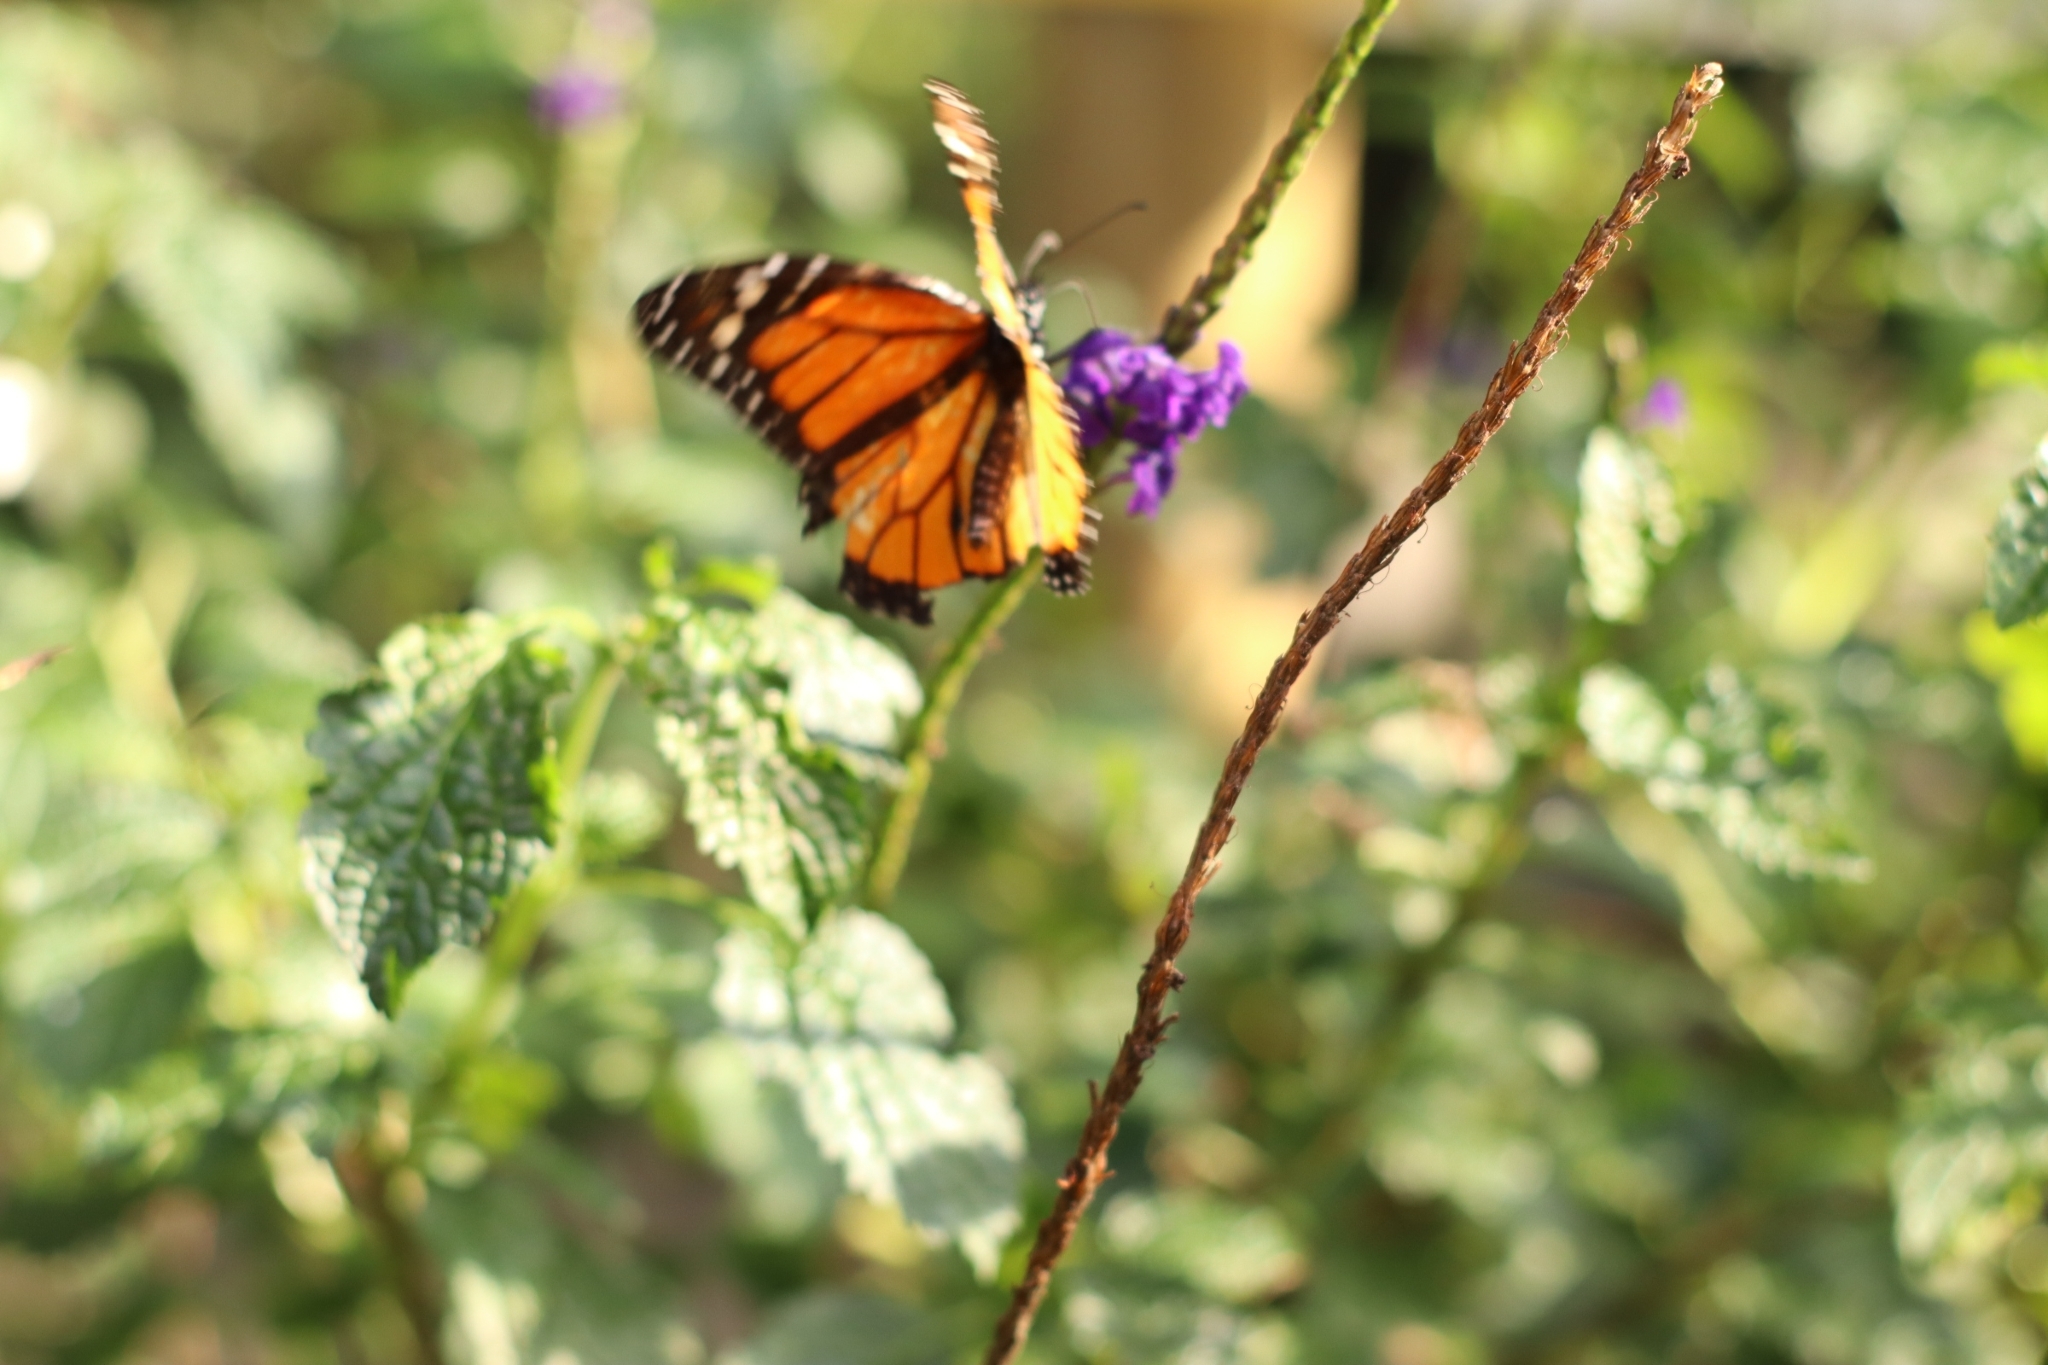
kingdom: Animalia
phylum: Arthropoda
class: Insecta
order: Lepidoptera
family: Nymphalidae
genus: Danaus
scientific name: Danaus plexippus
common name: Monarch
